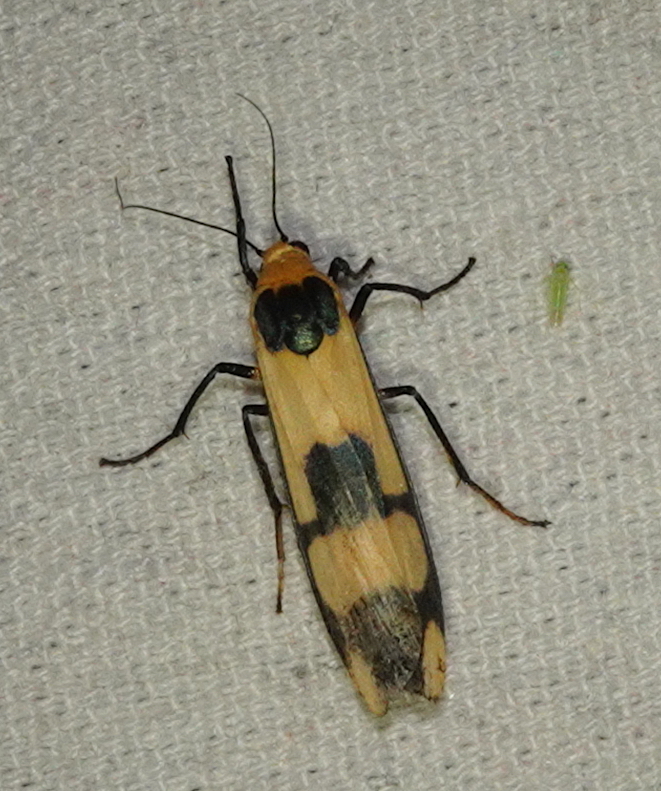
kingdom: Animalia
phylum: Arthropoda
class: Insecta
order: Lepidoptera
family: Erebidae
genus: Oeonistis
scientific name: Oeonistis entella
